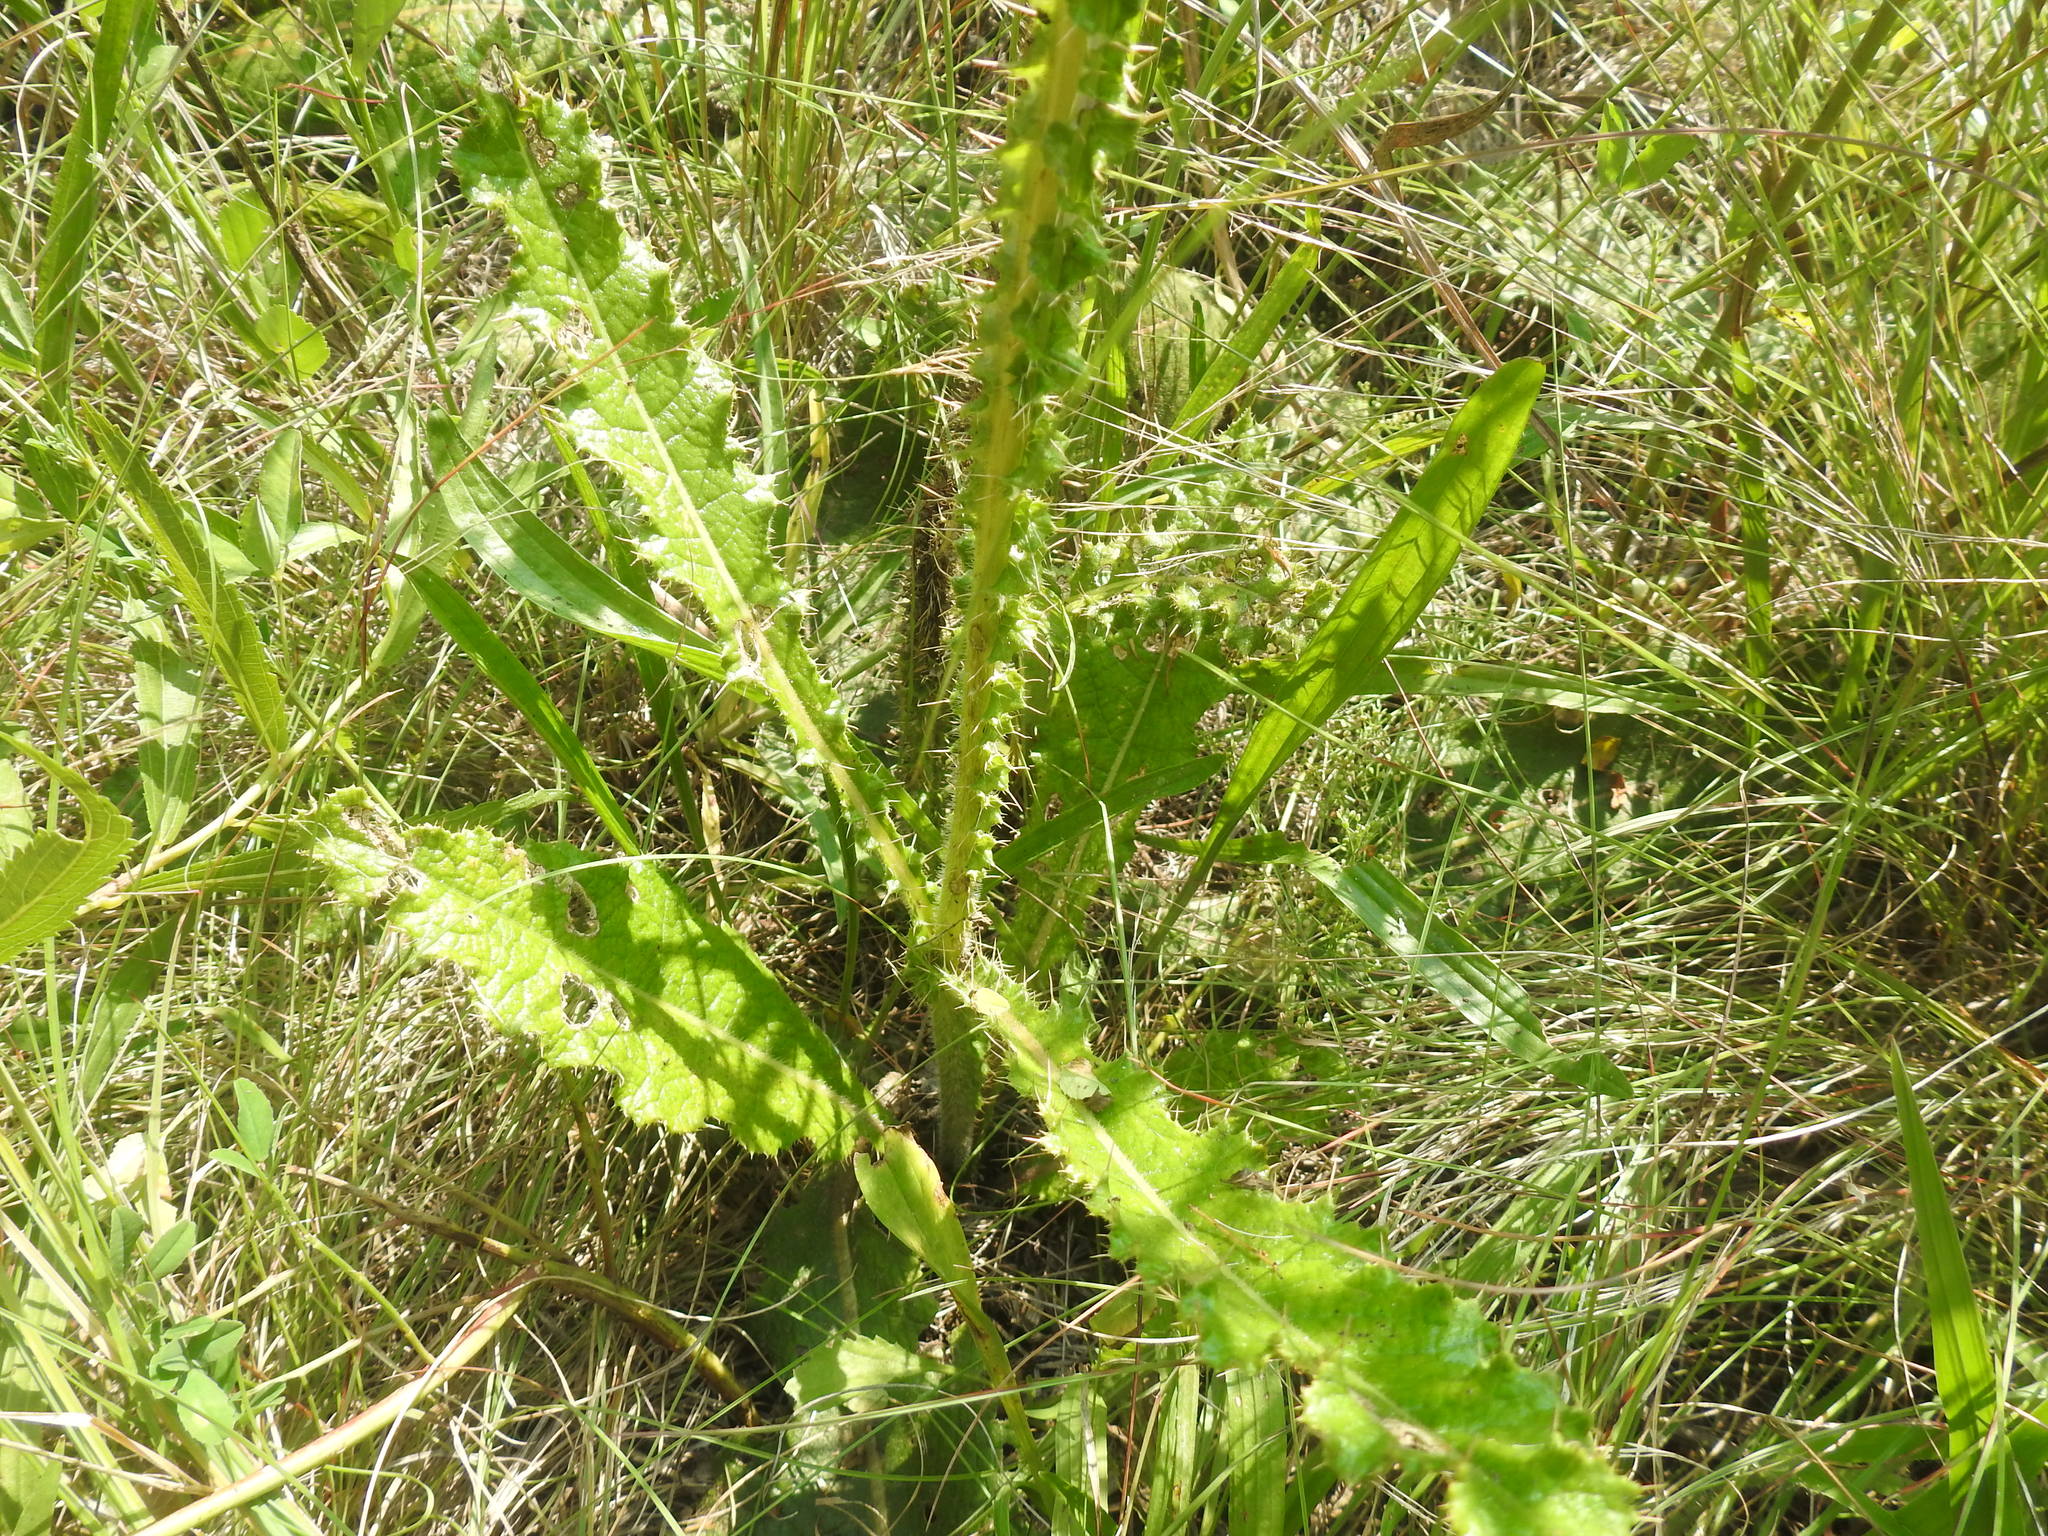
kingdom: Plantae
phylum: Tracheophyta
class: Magnoliopsida
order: Asterales
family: Asteraceae
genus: Berkheya
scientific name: Berkheya radula
